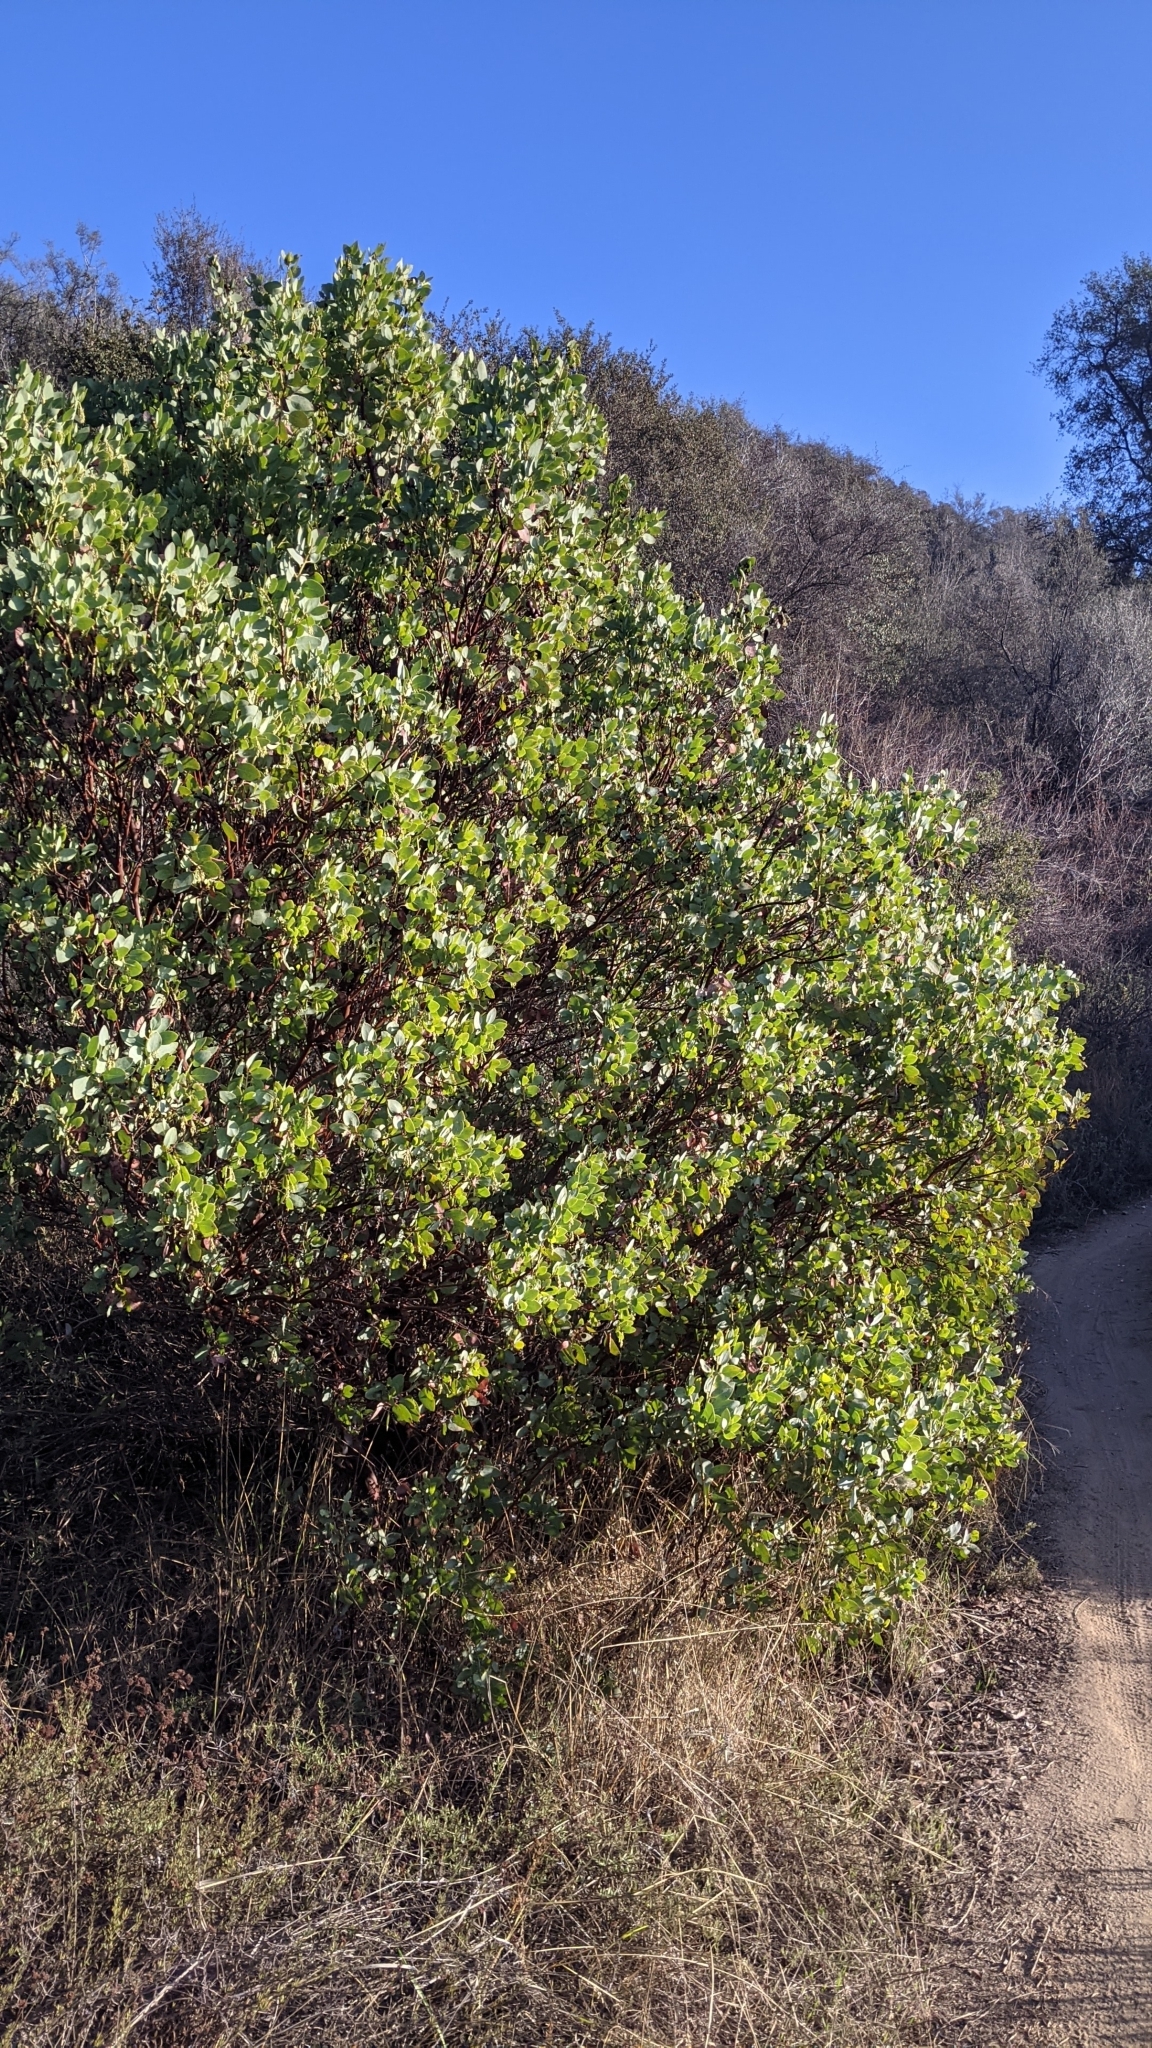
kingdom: Plantae
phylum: Tracheophyta
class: Magnoliopsida
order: Ericales
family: Ericaceae
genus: Arctostaphylos
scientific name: Arctostaphylos glauca
